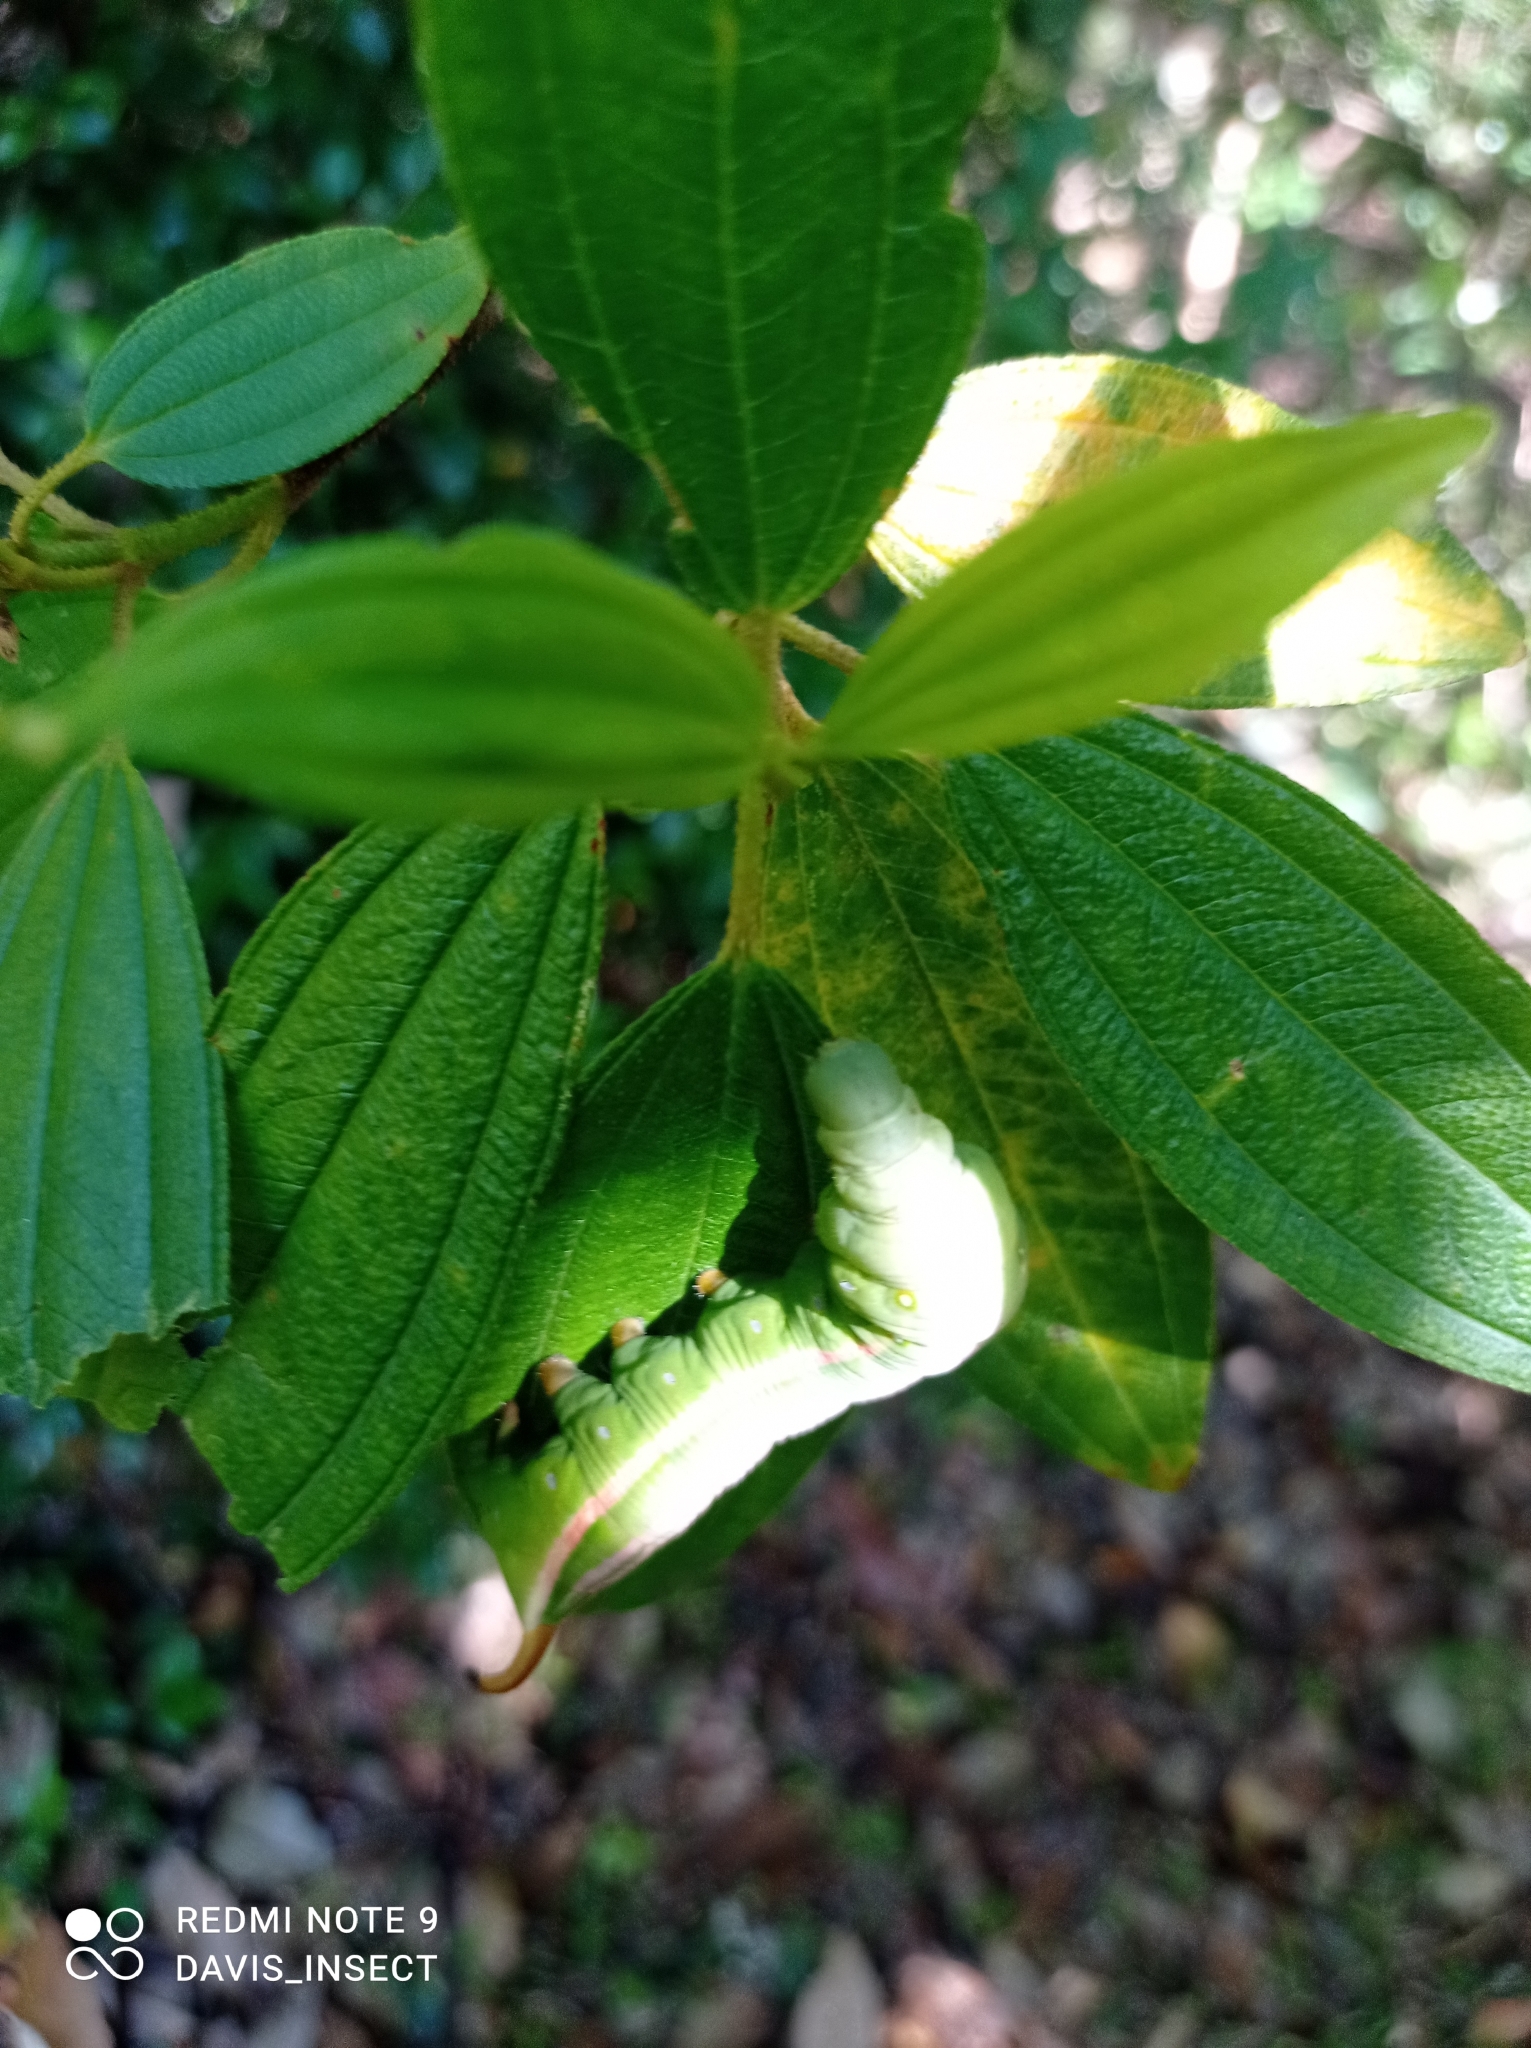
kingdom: Animalia
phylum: Arthropoda
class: Insecta
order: Lepidoptera
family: Sphingidae
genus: Gnathothlibus
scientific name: Gnathothlibus eras
